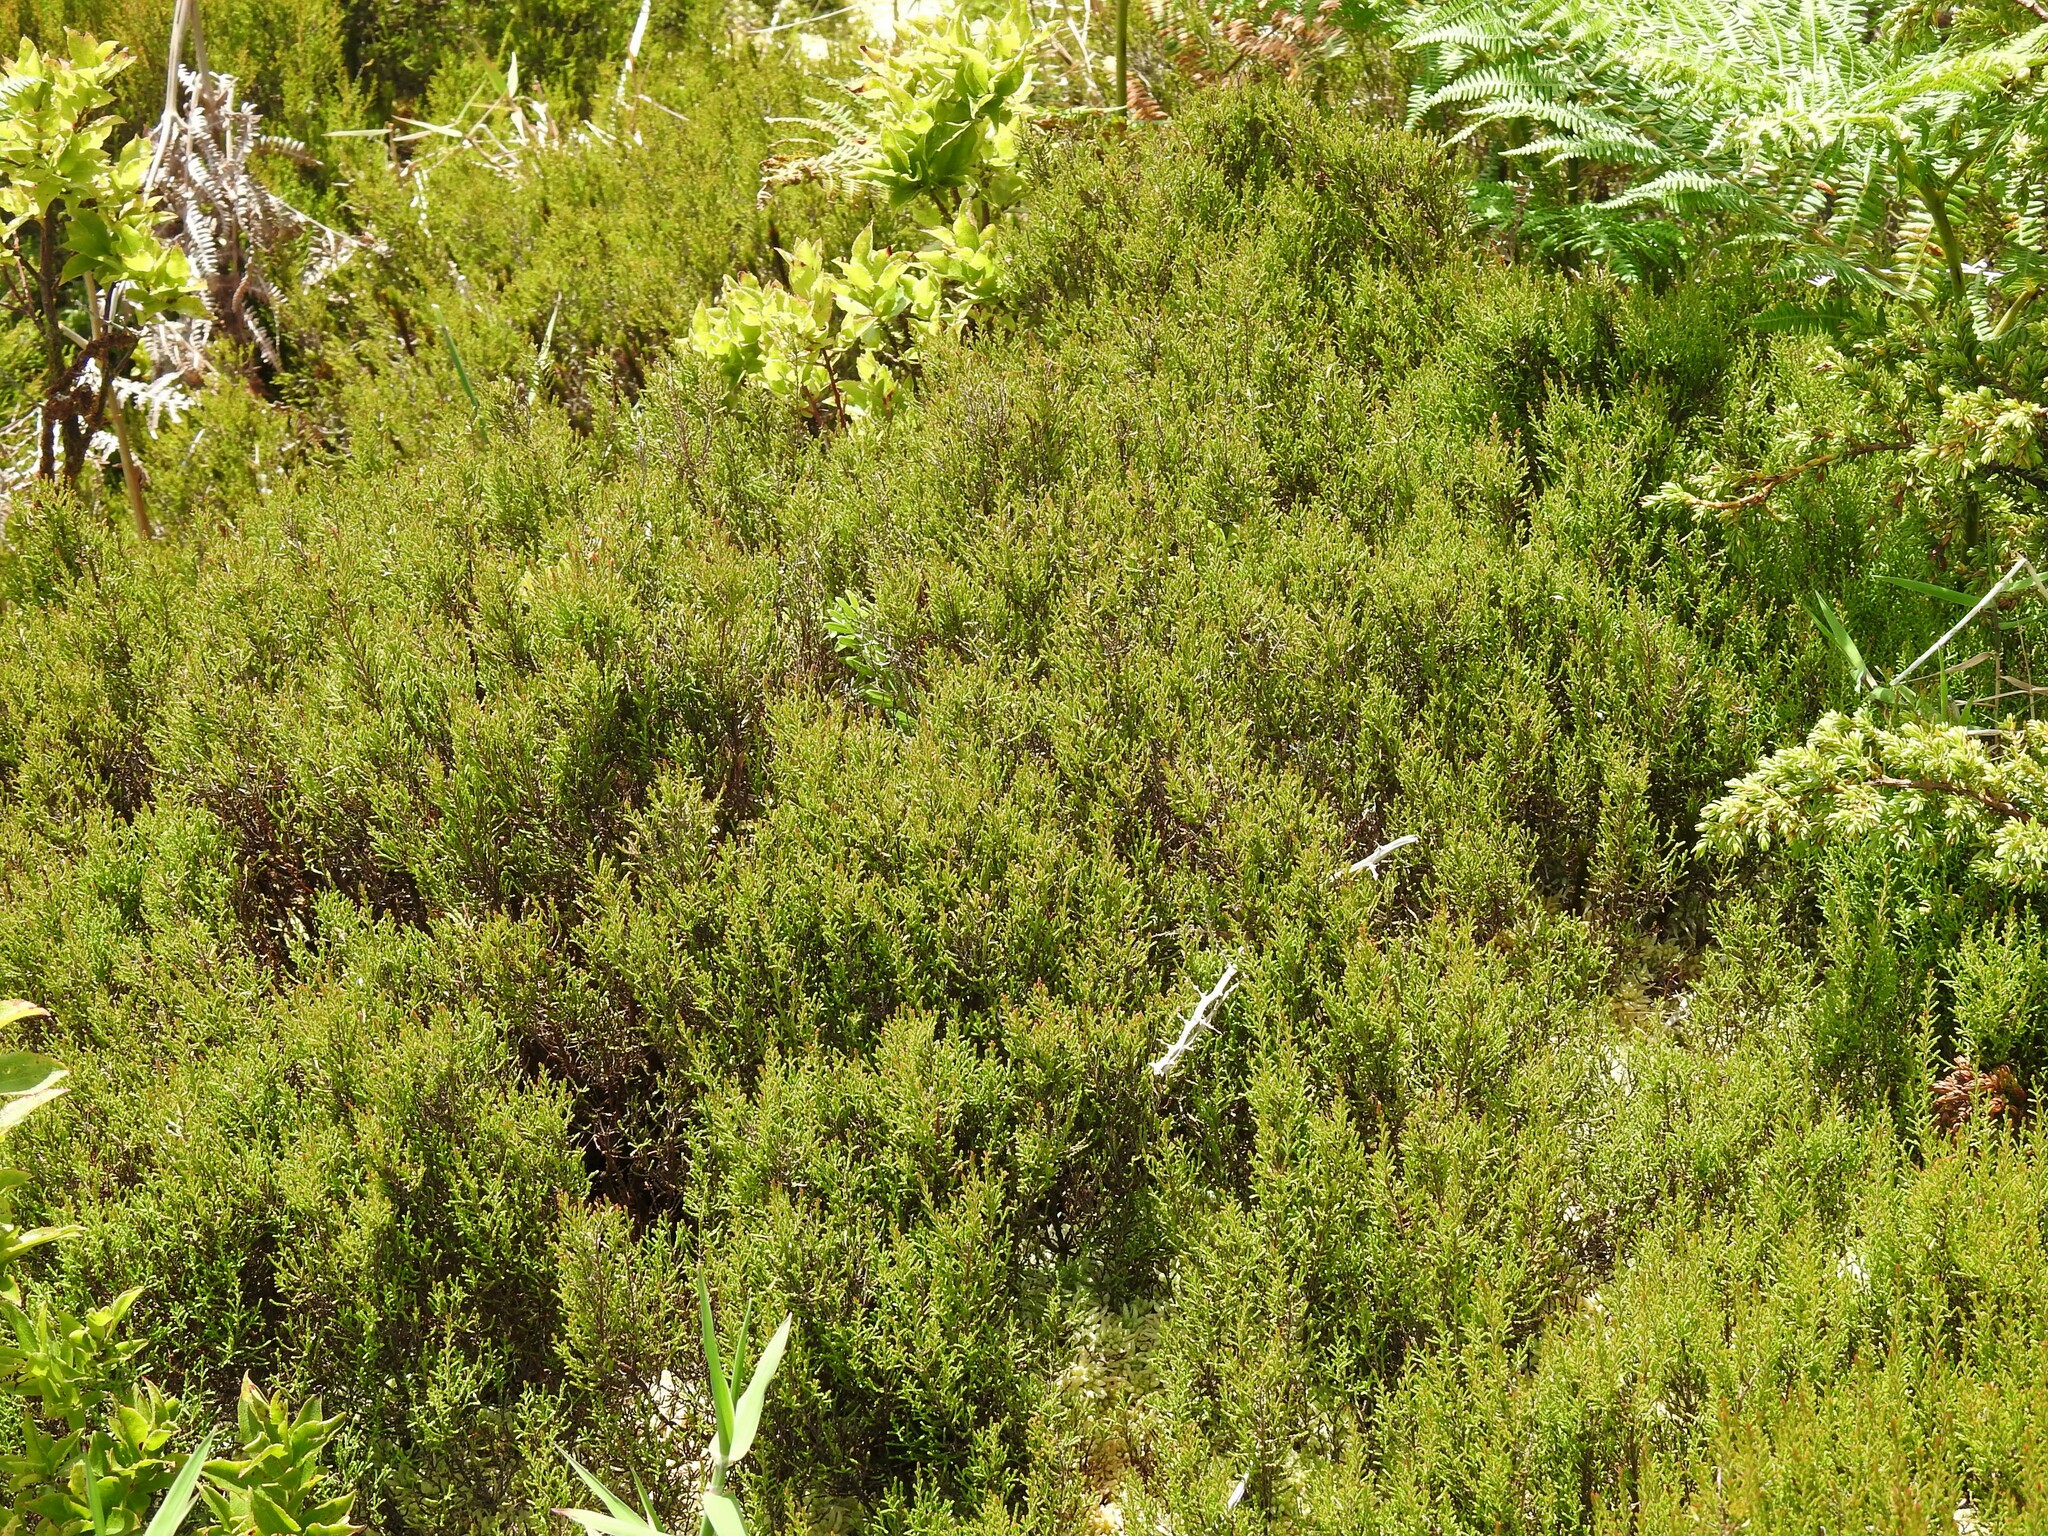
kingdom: Plantae
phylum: Tracheophyta
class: Magnoliopsida
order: Ericales
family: Ericaceae
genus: Calluna
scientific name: Calluna vulgaris
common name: Heather
